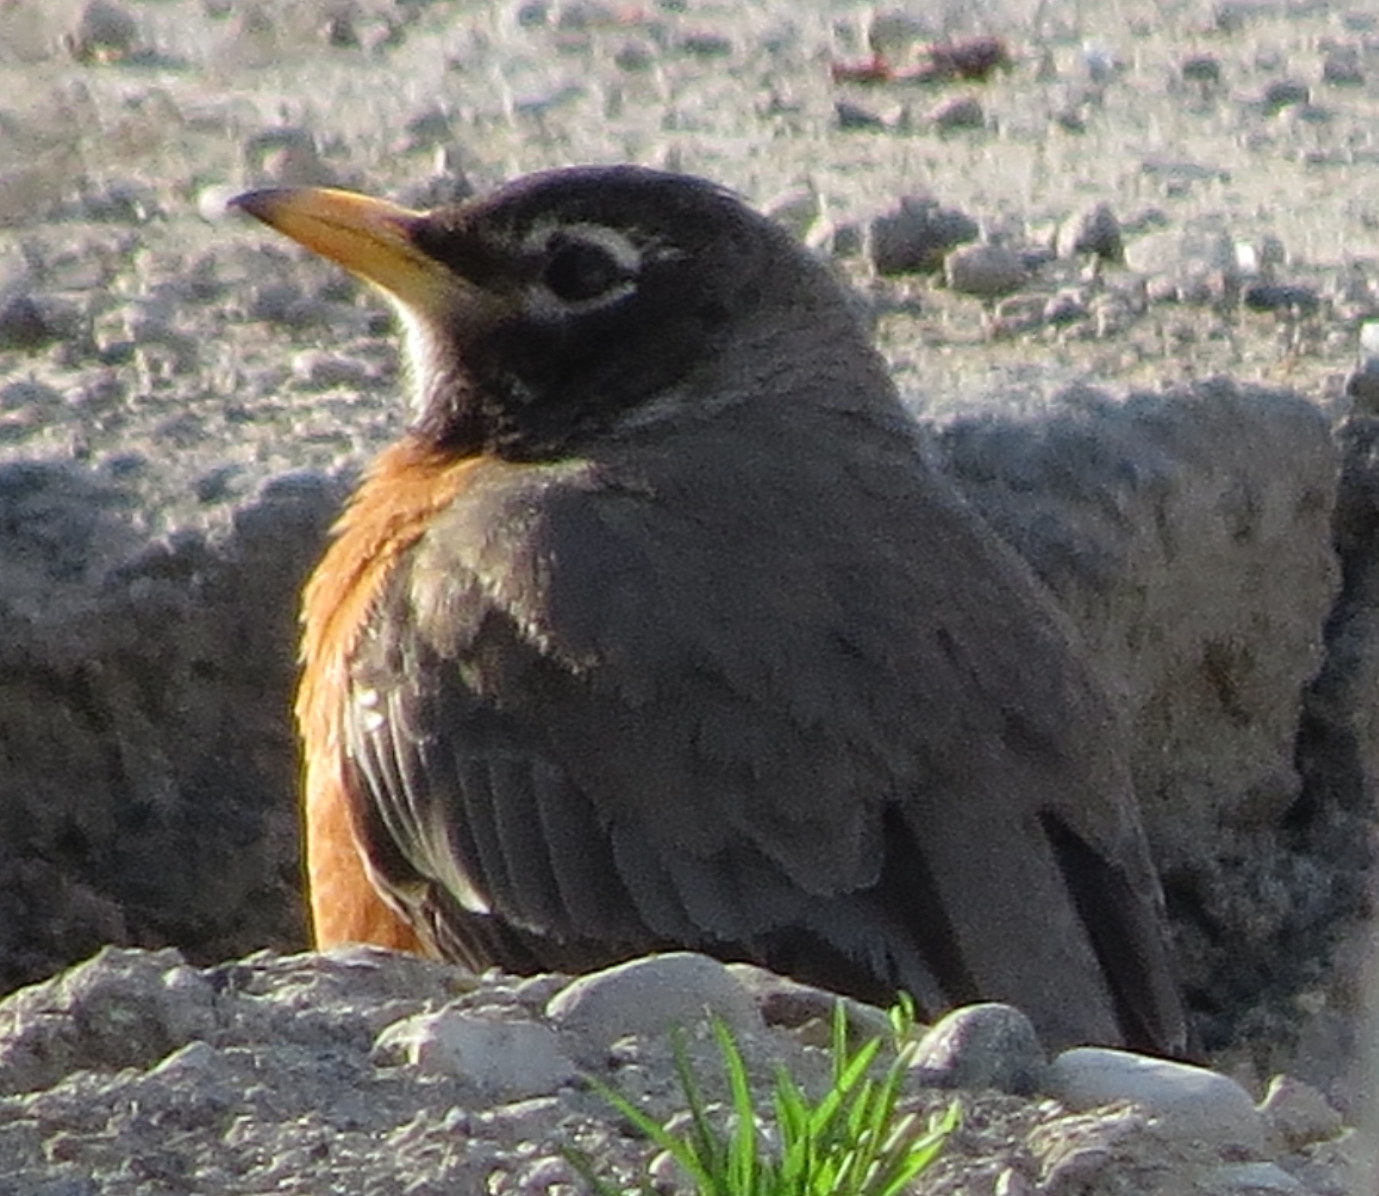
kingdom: Animalia
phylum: Chordata
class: Aves
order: Passeriformes
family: Turdidae
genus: Turdus
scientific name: Turdus migratorius
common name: American robin
